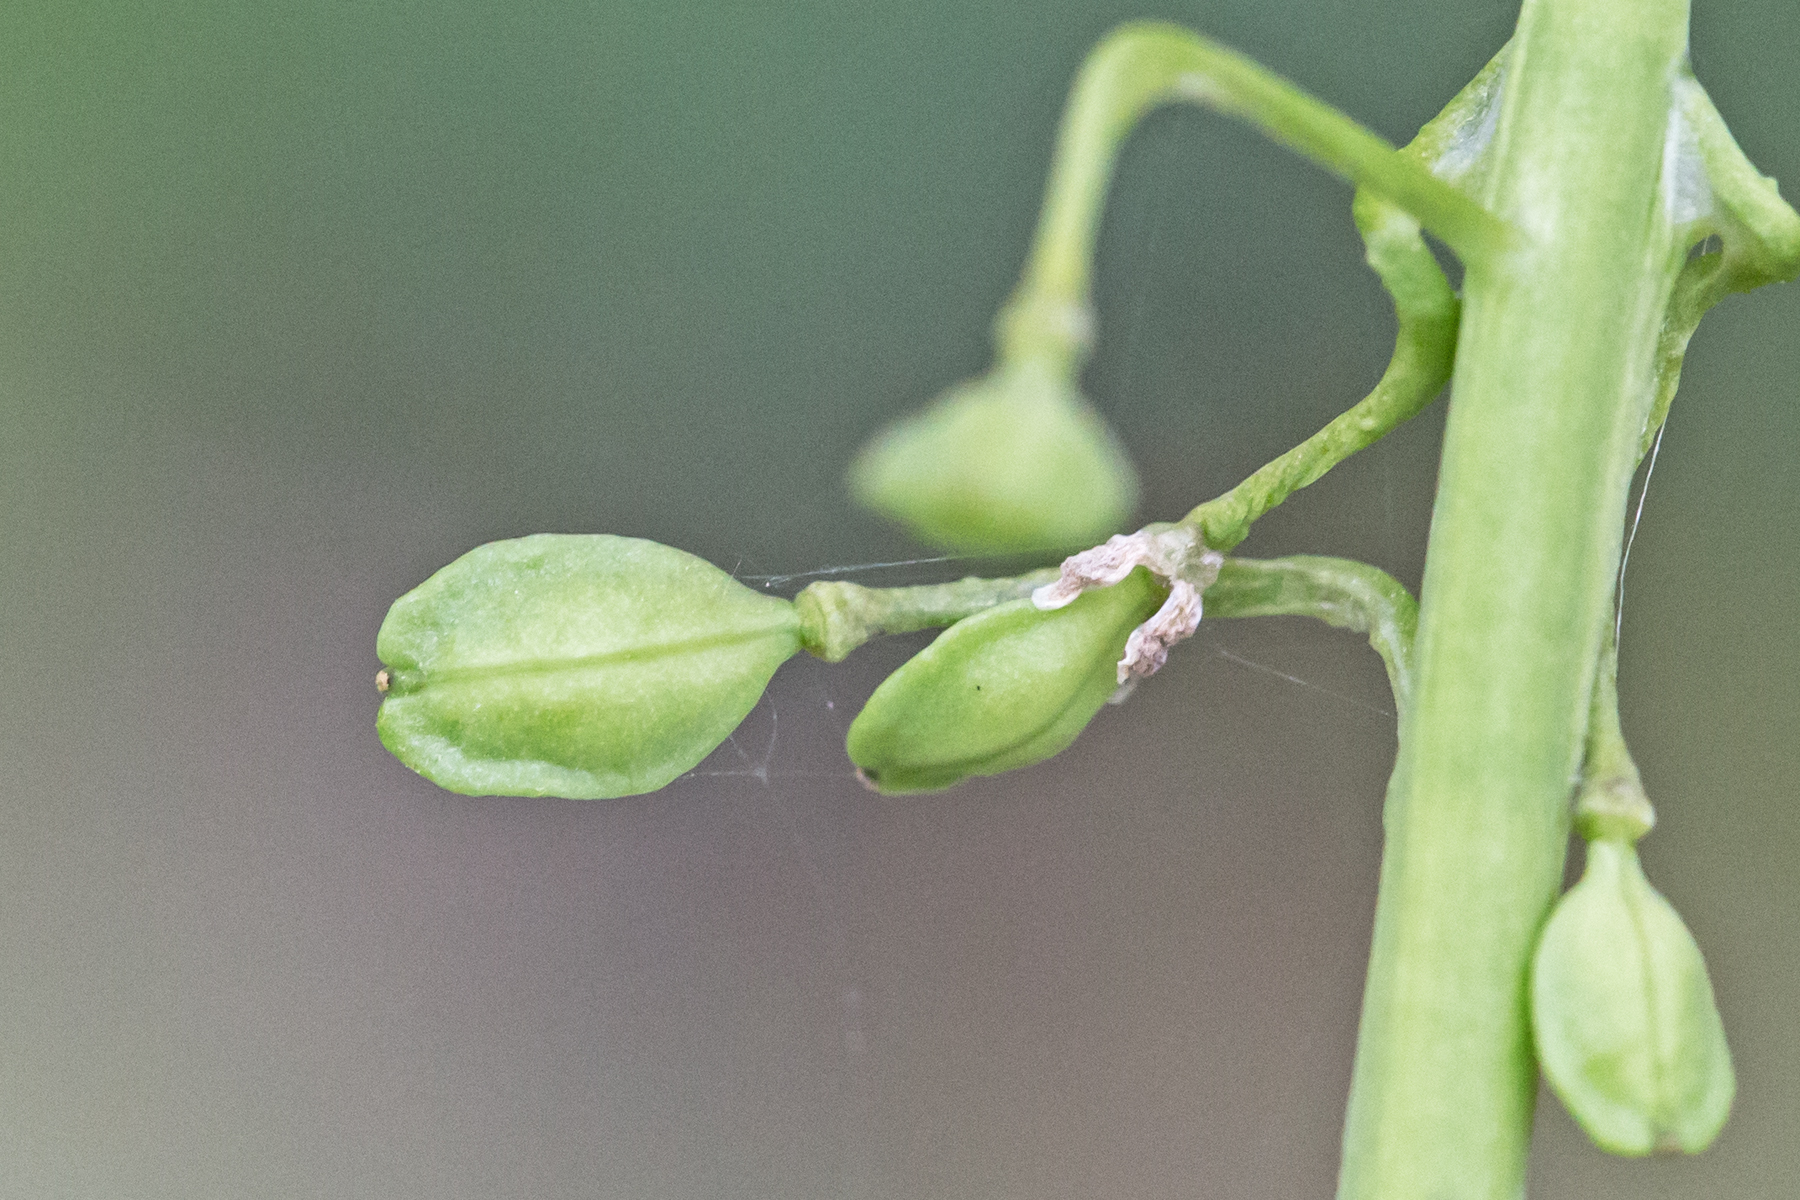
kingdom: Plantae
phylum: Tracheophyta
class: Magnoliopsida
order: Brassicales
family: Brassicaceae
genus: Mummenhoffia
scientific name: Mummenhoffia alliacea
